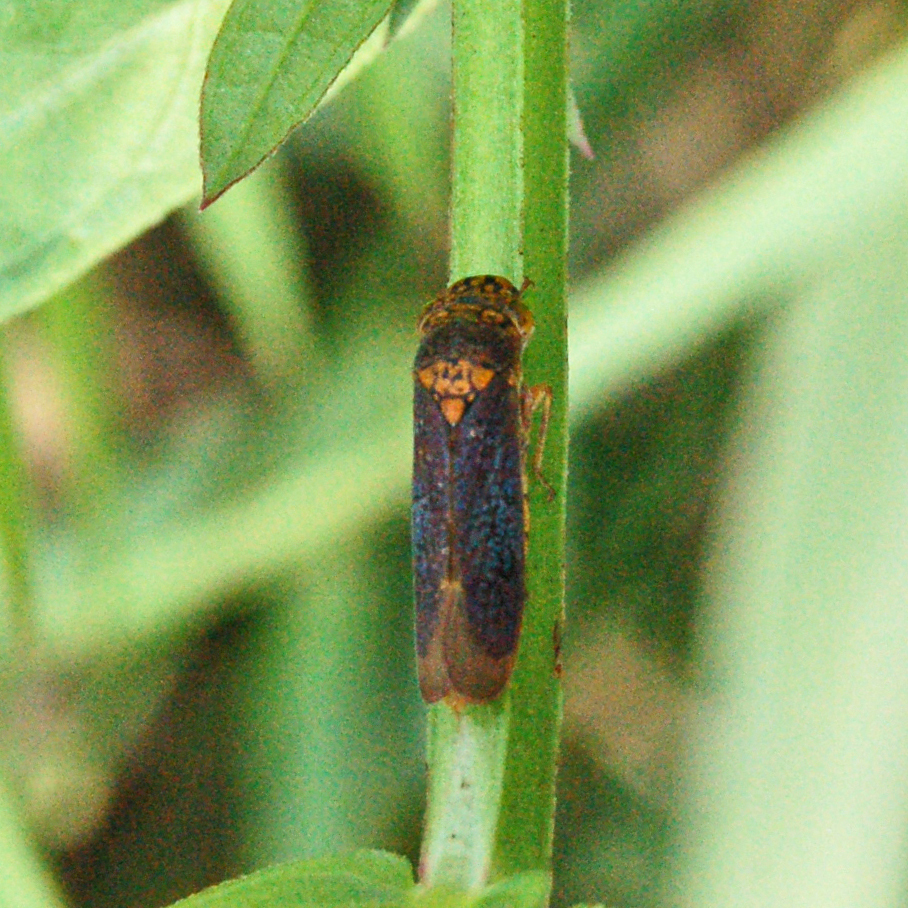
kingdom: Animalia
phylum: Arthropoda
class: Insecta
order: Hemiptera
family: Cicadellidae
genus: Oncometopia
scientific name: Oncometopia orbona
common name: Broad-headed sharpshooter
